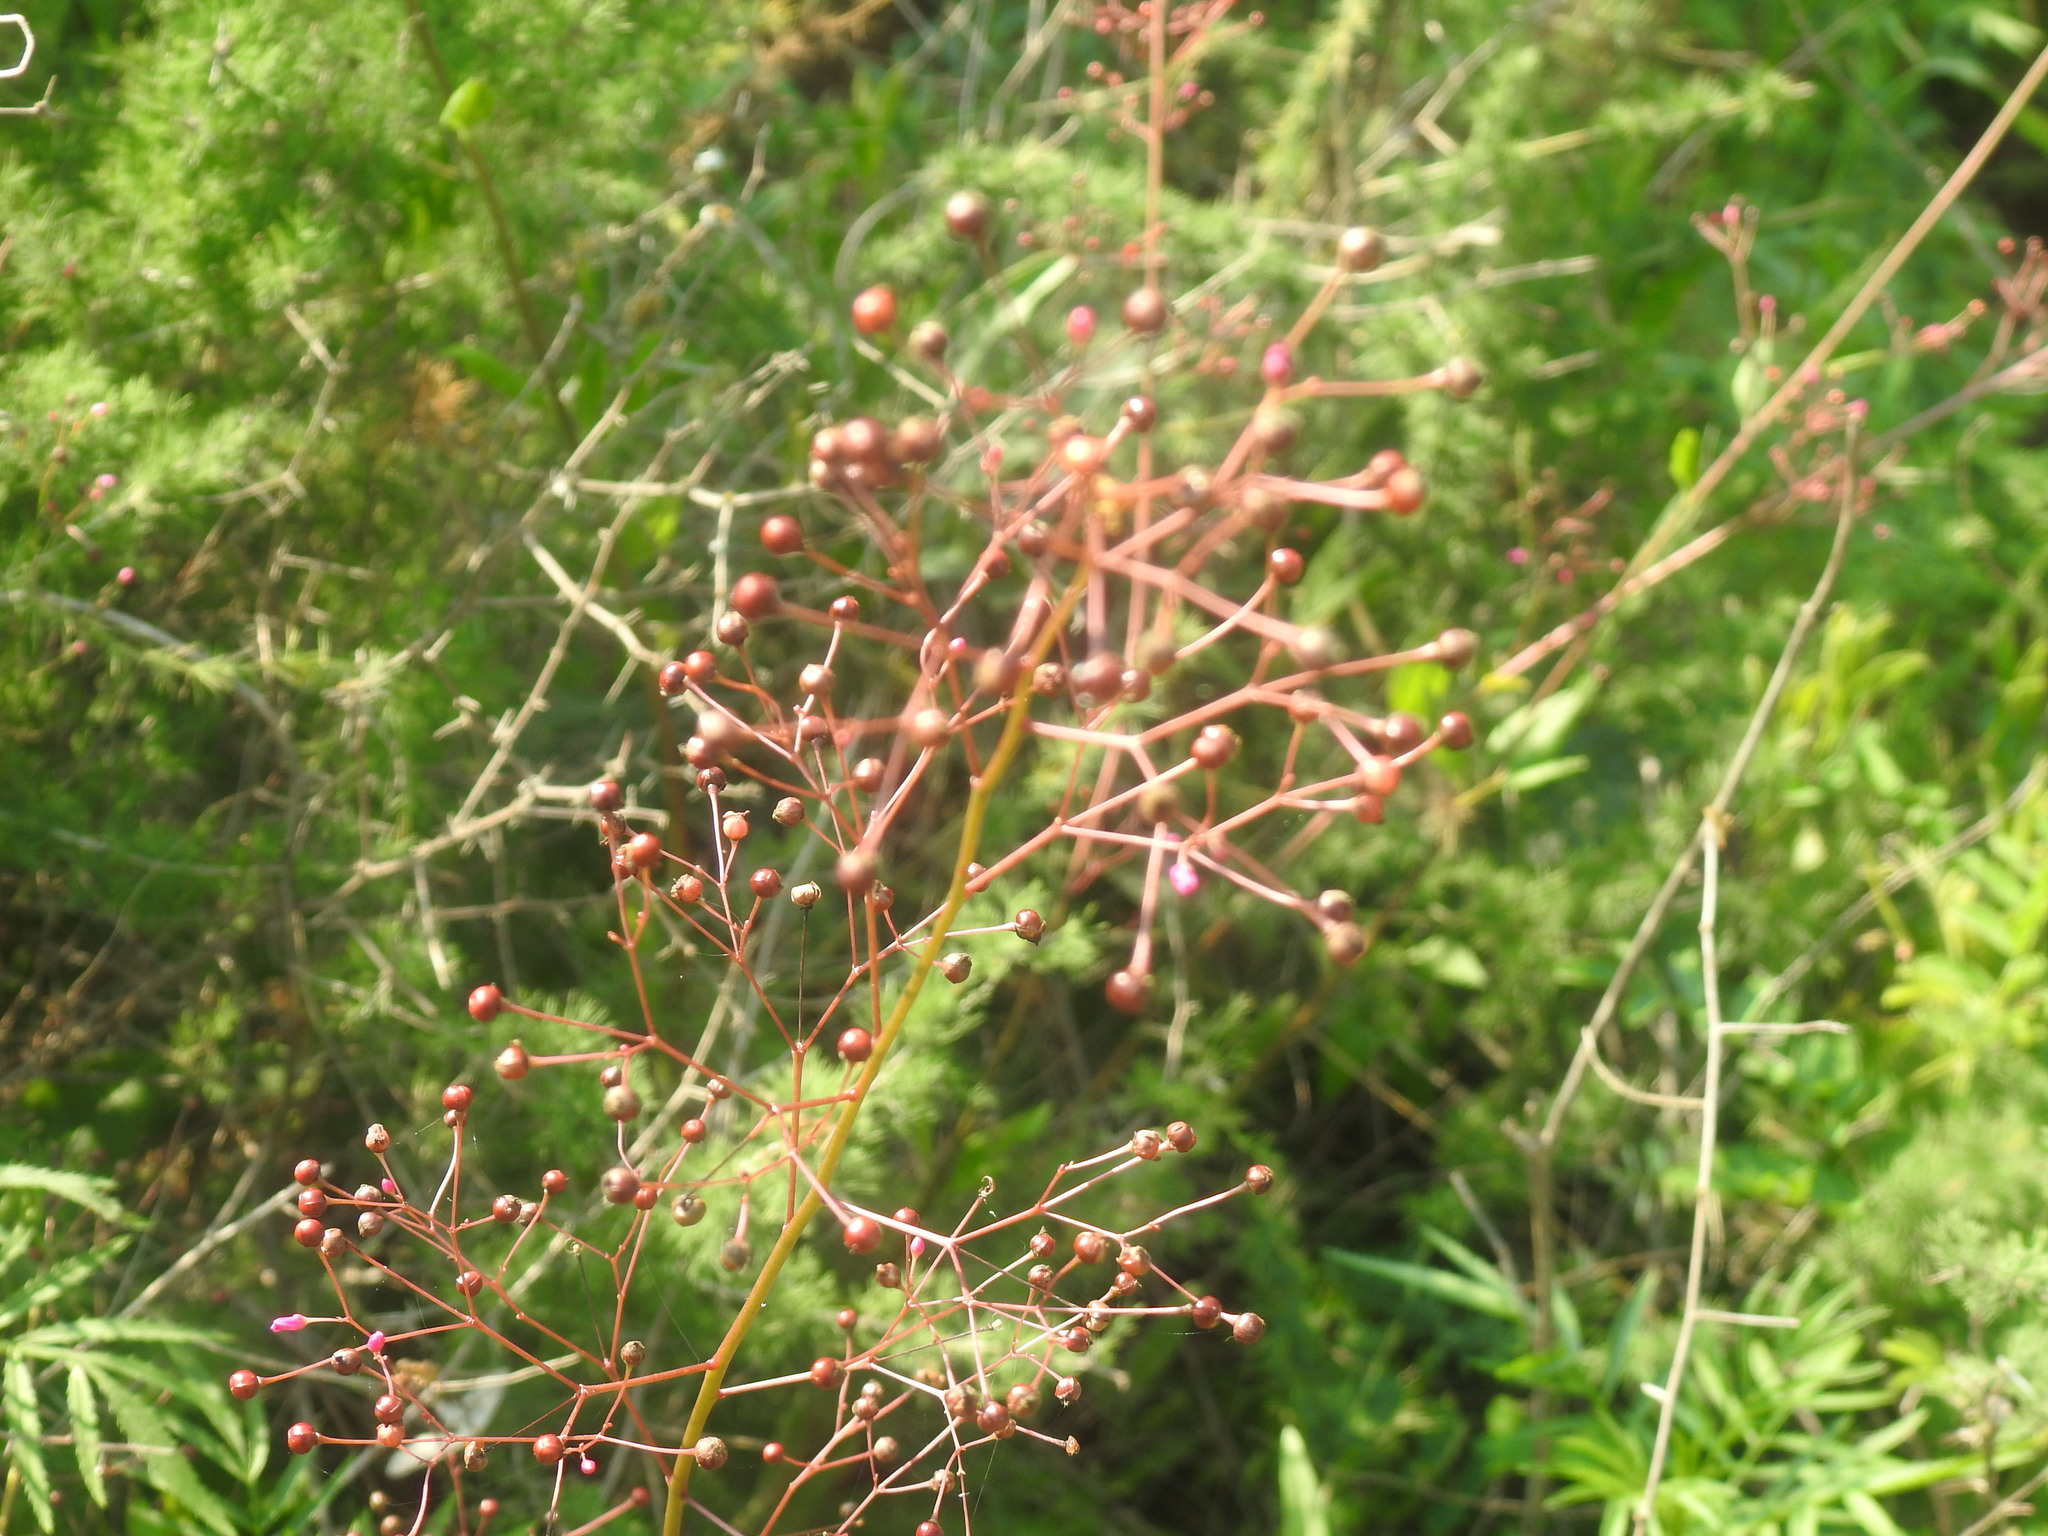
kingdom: Plantae
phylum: Tracheophyta
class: Magnoliopsida
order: Caryophyllales
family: Talinaceae
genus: Talinum
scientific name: Talinum paniculatum
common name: Jewels of opar
